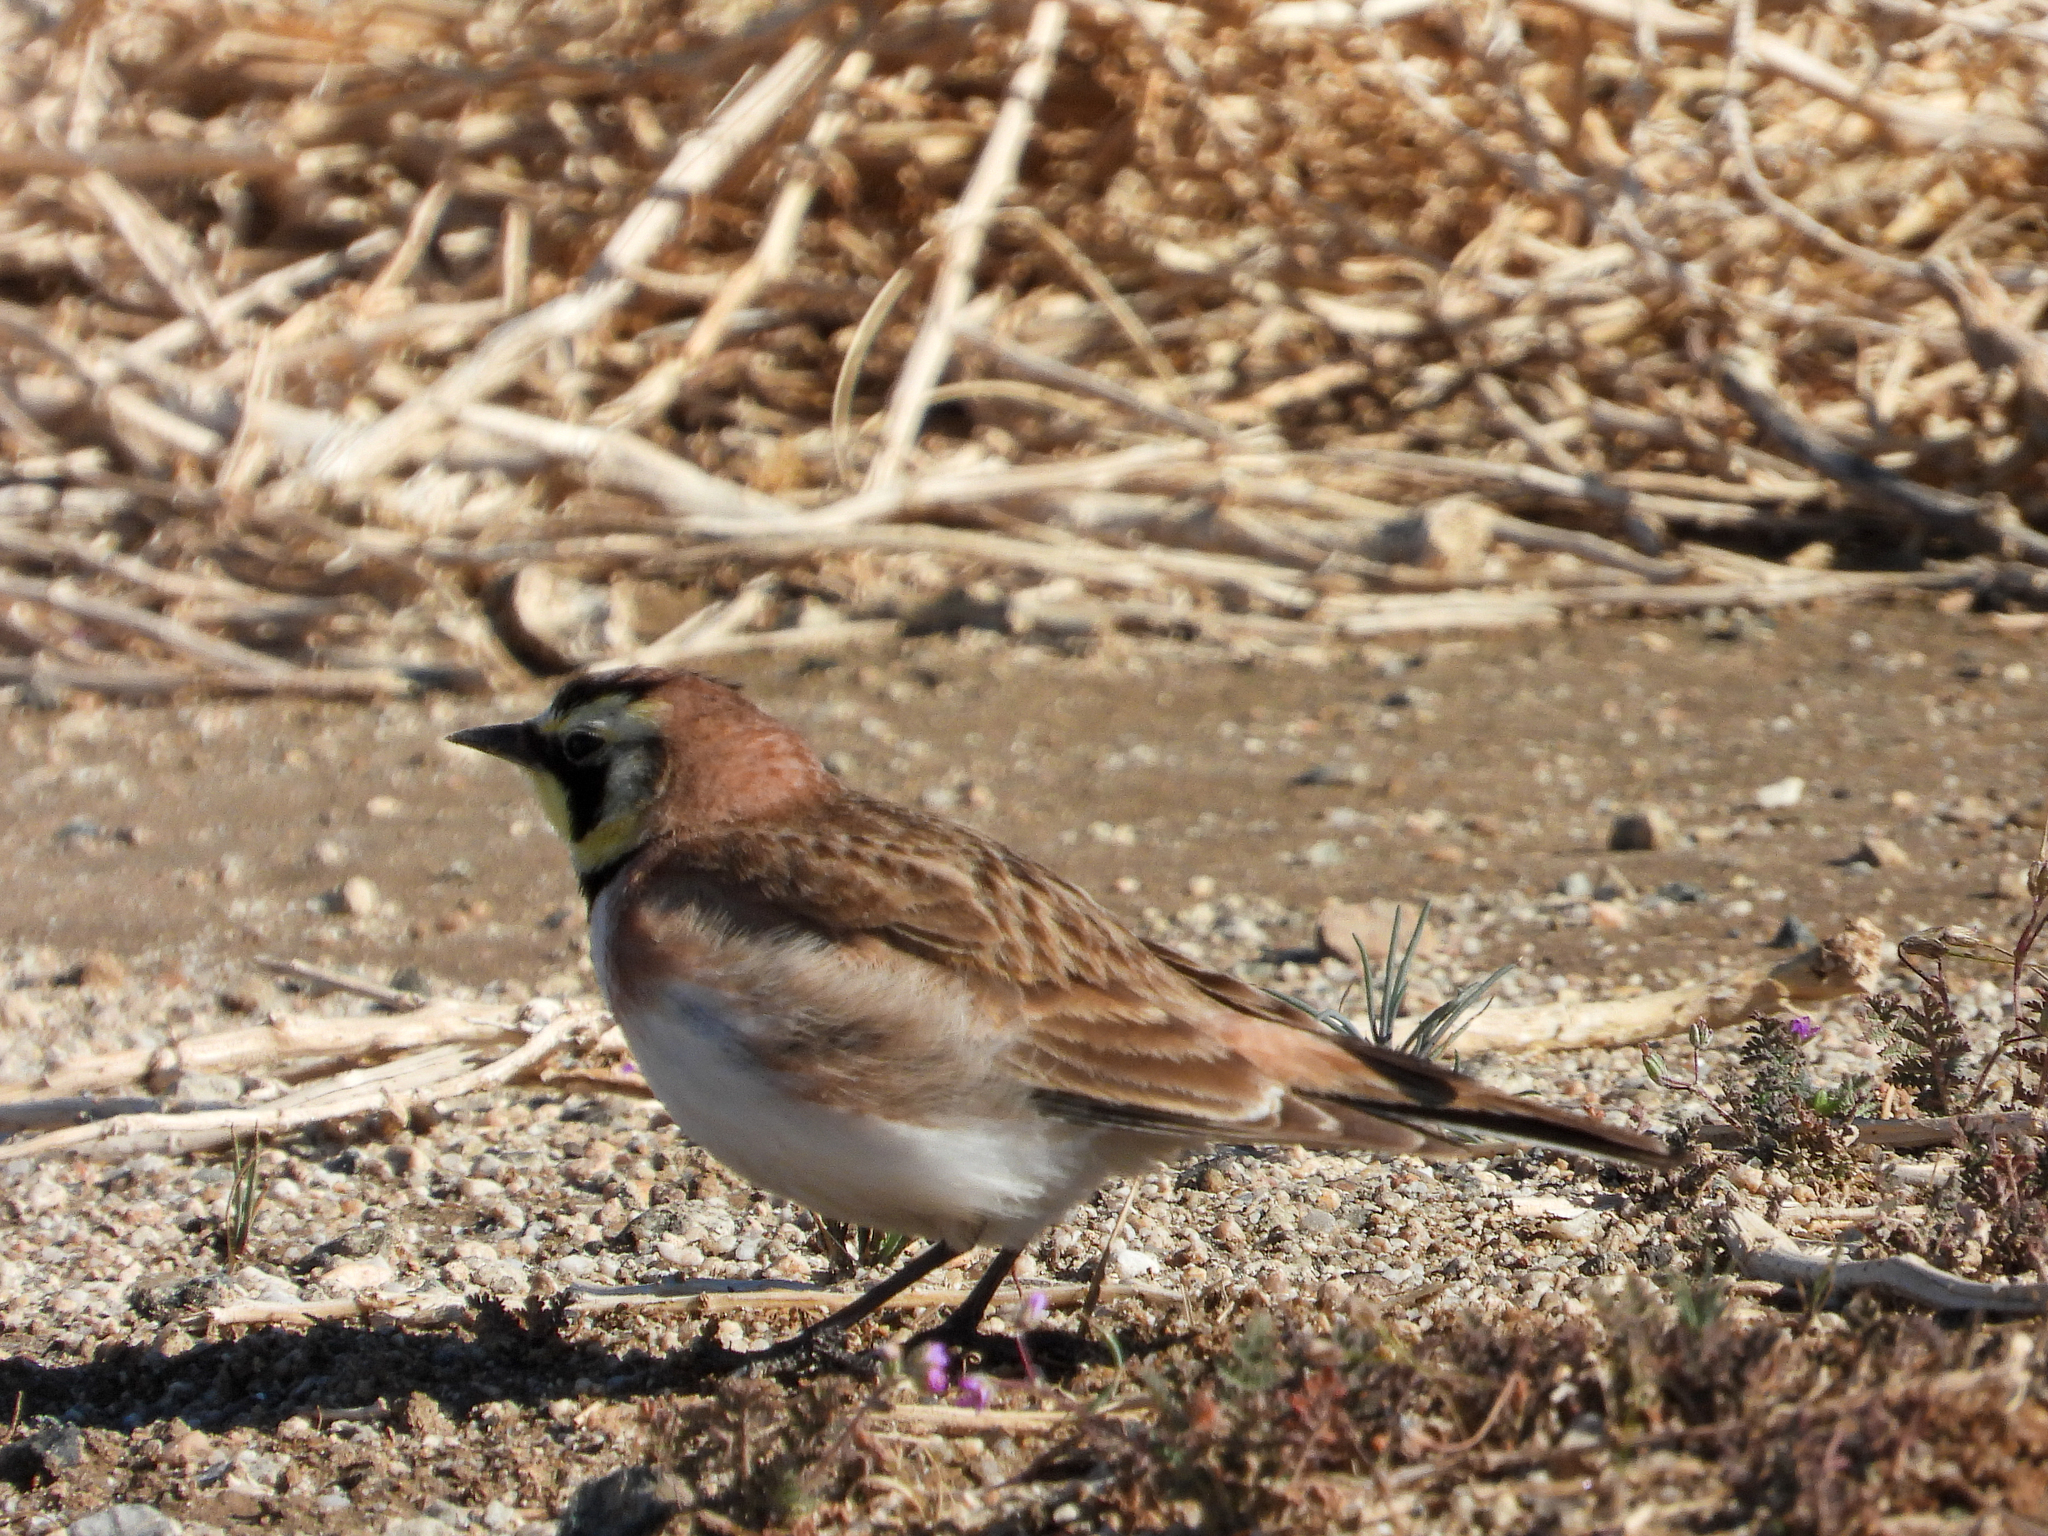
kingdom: Animalia
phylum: Chordata
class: Aves
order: Passeriformes
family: Alaudidae
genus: Eremophila
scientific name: Eremophila alpestris
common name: Horned lark
